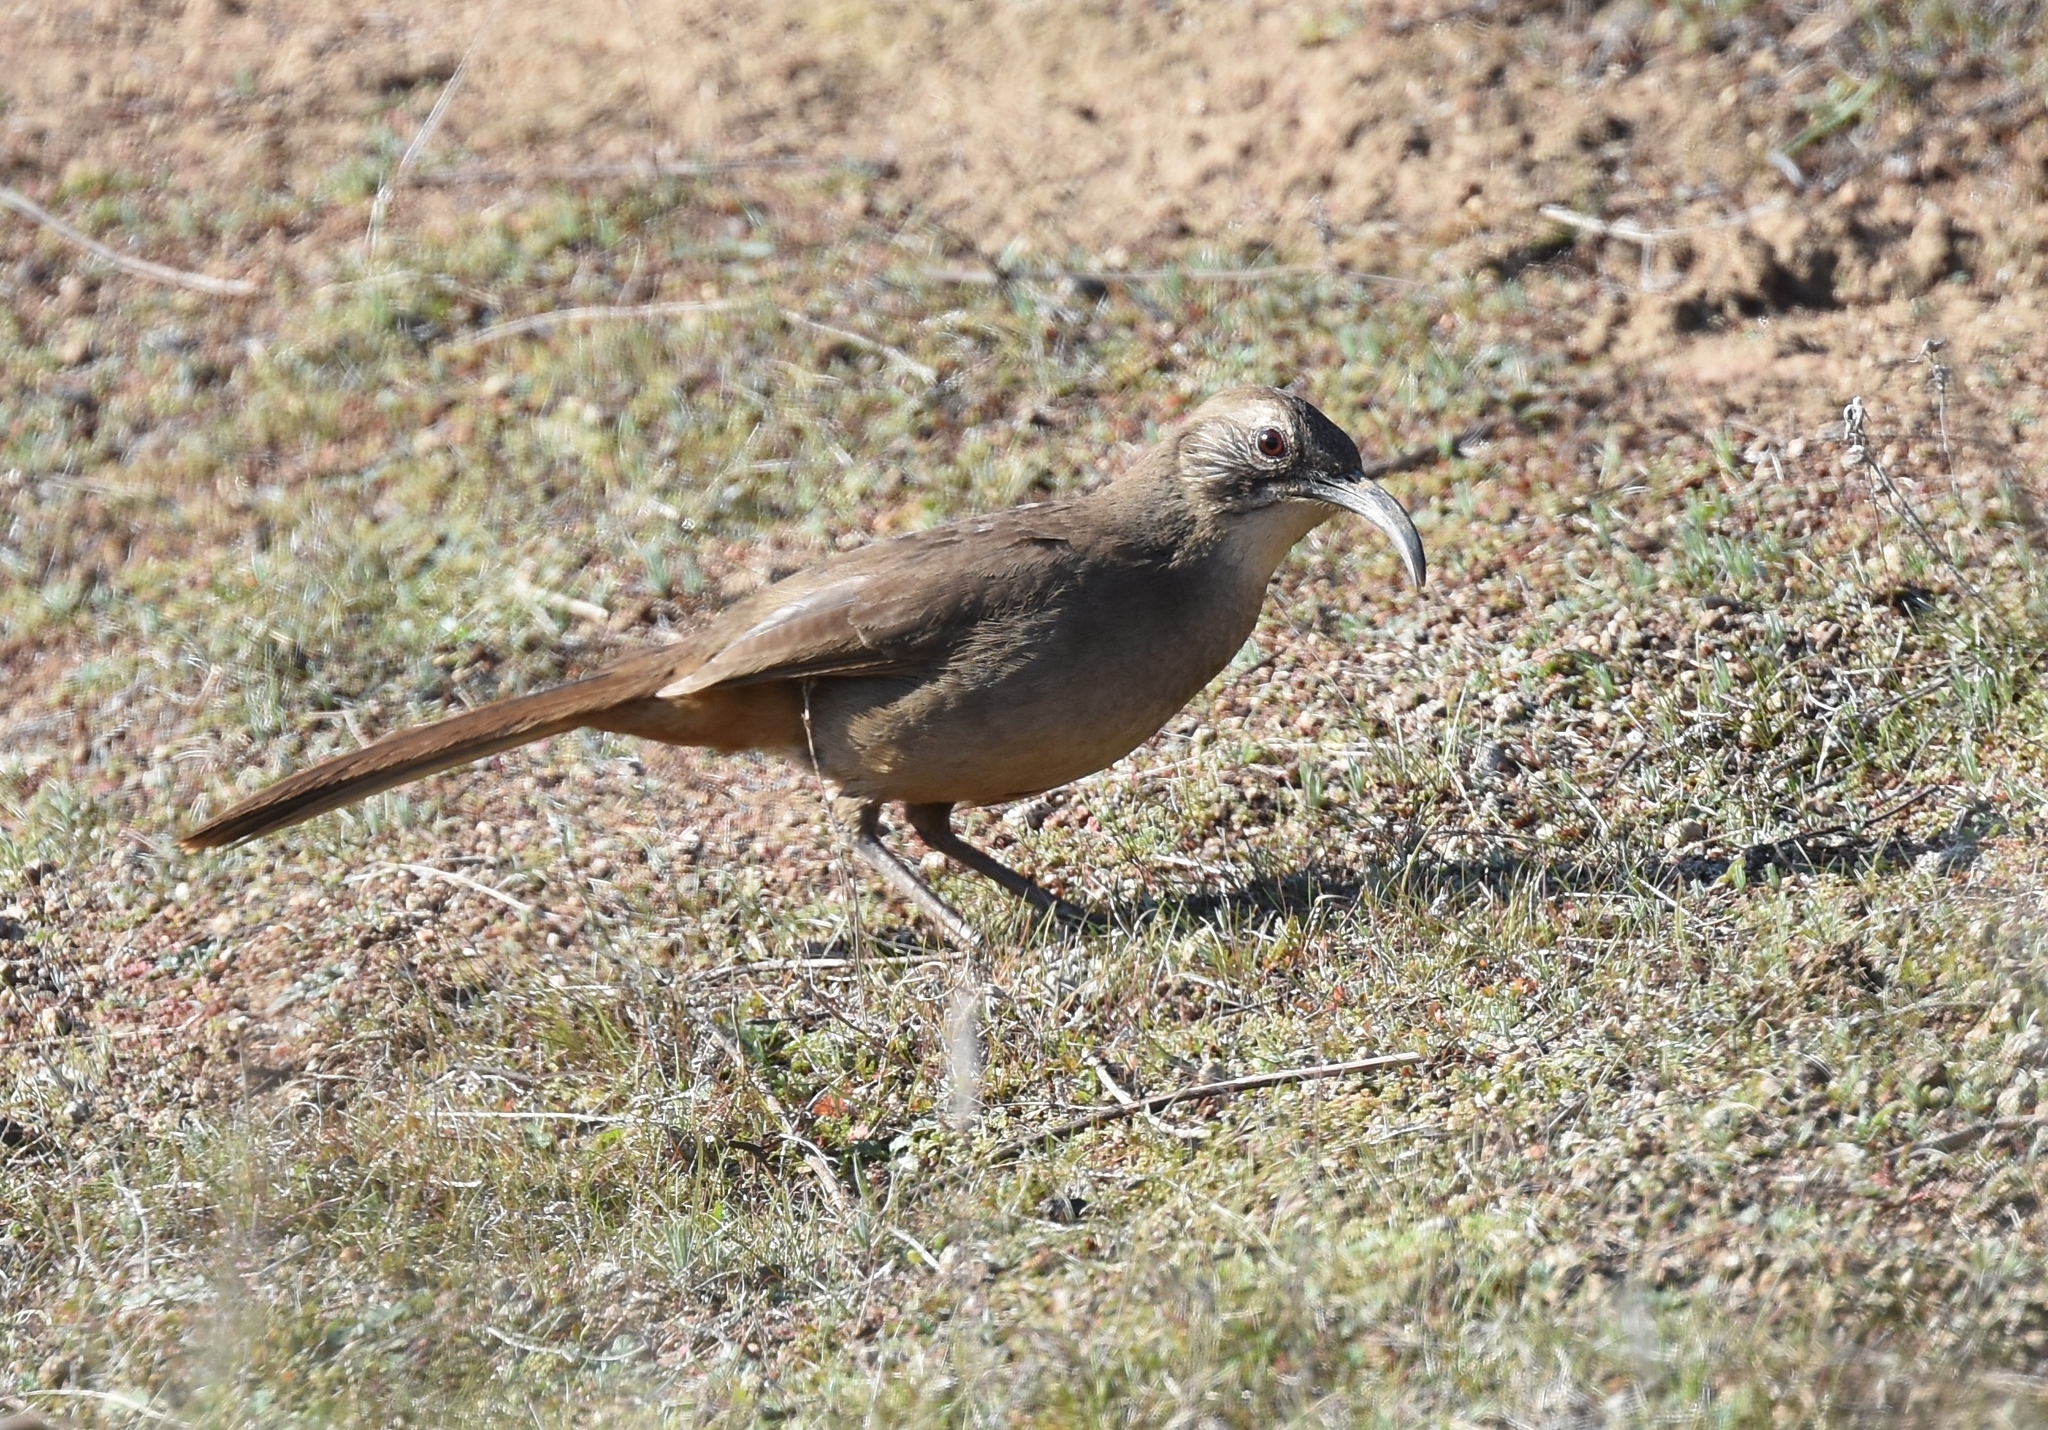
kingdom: Animalia
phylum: Chordata
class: Aves
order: Passeriformes
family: Mimidae
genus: Toxostoma
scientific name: Toxostoma redivivum
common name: California thrasher
